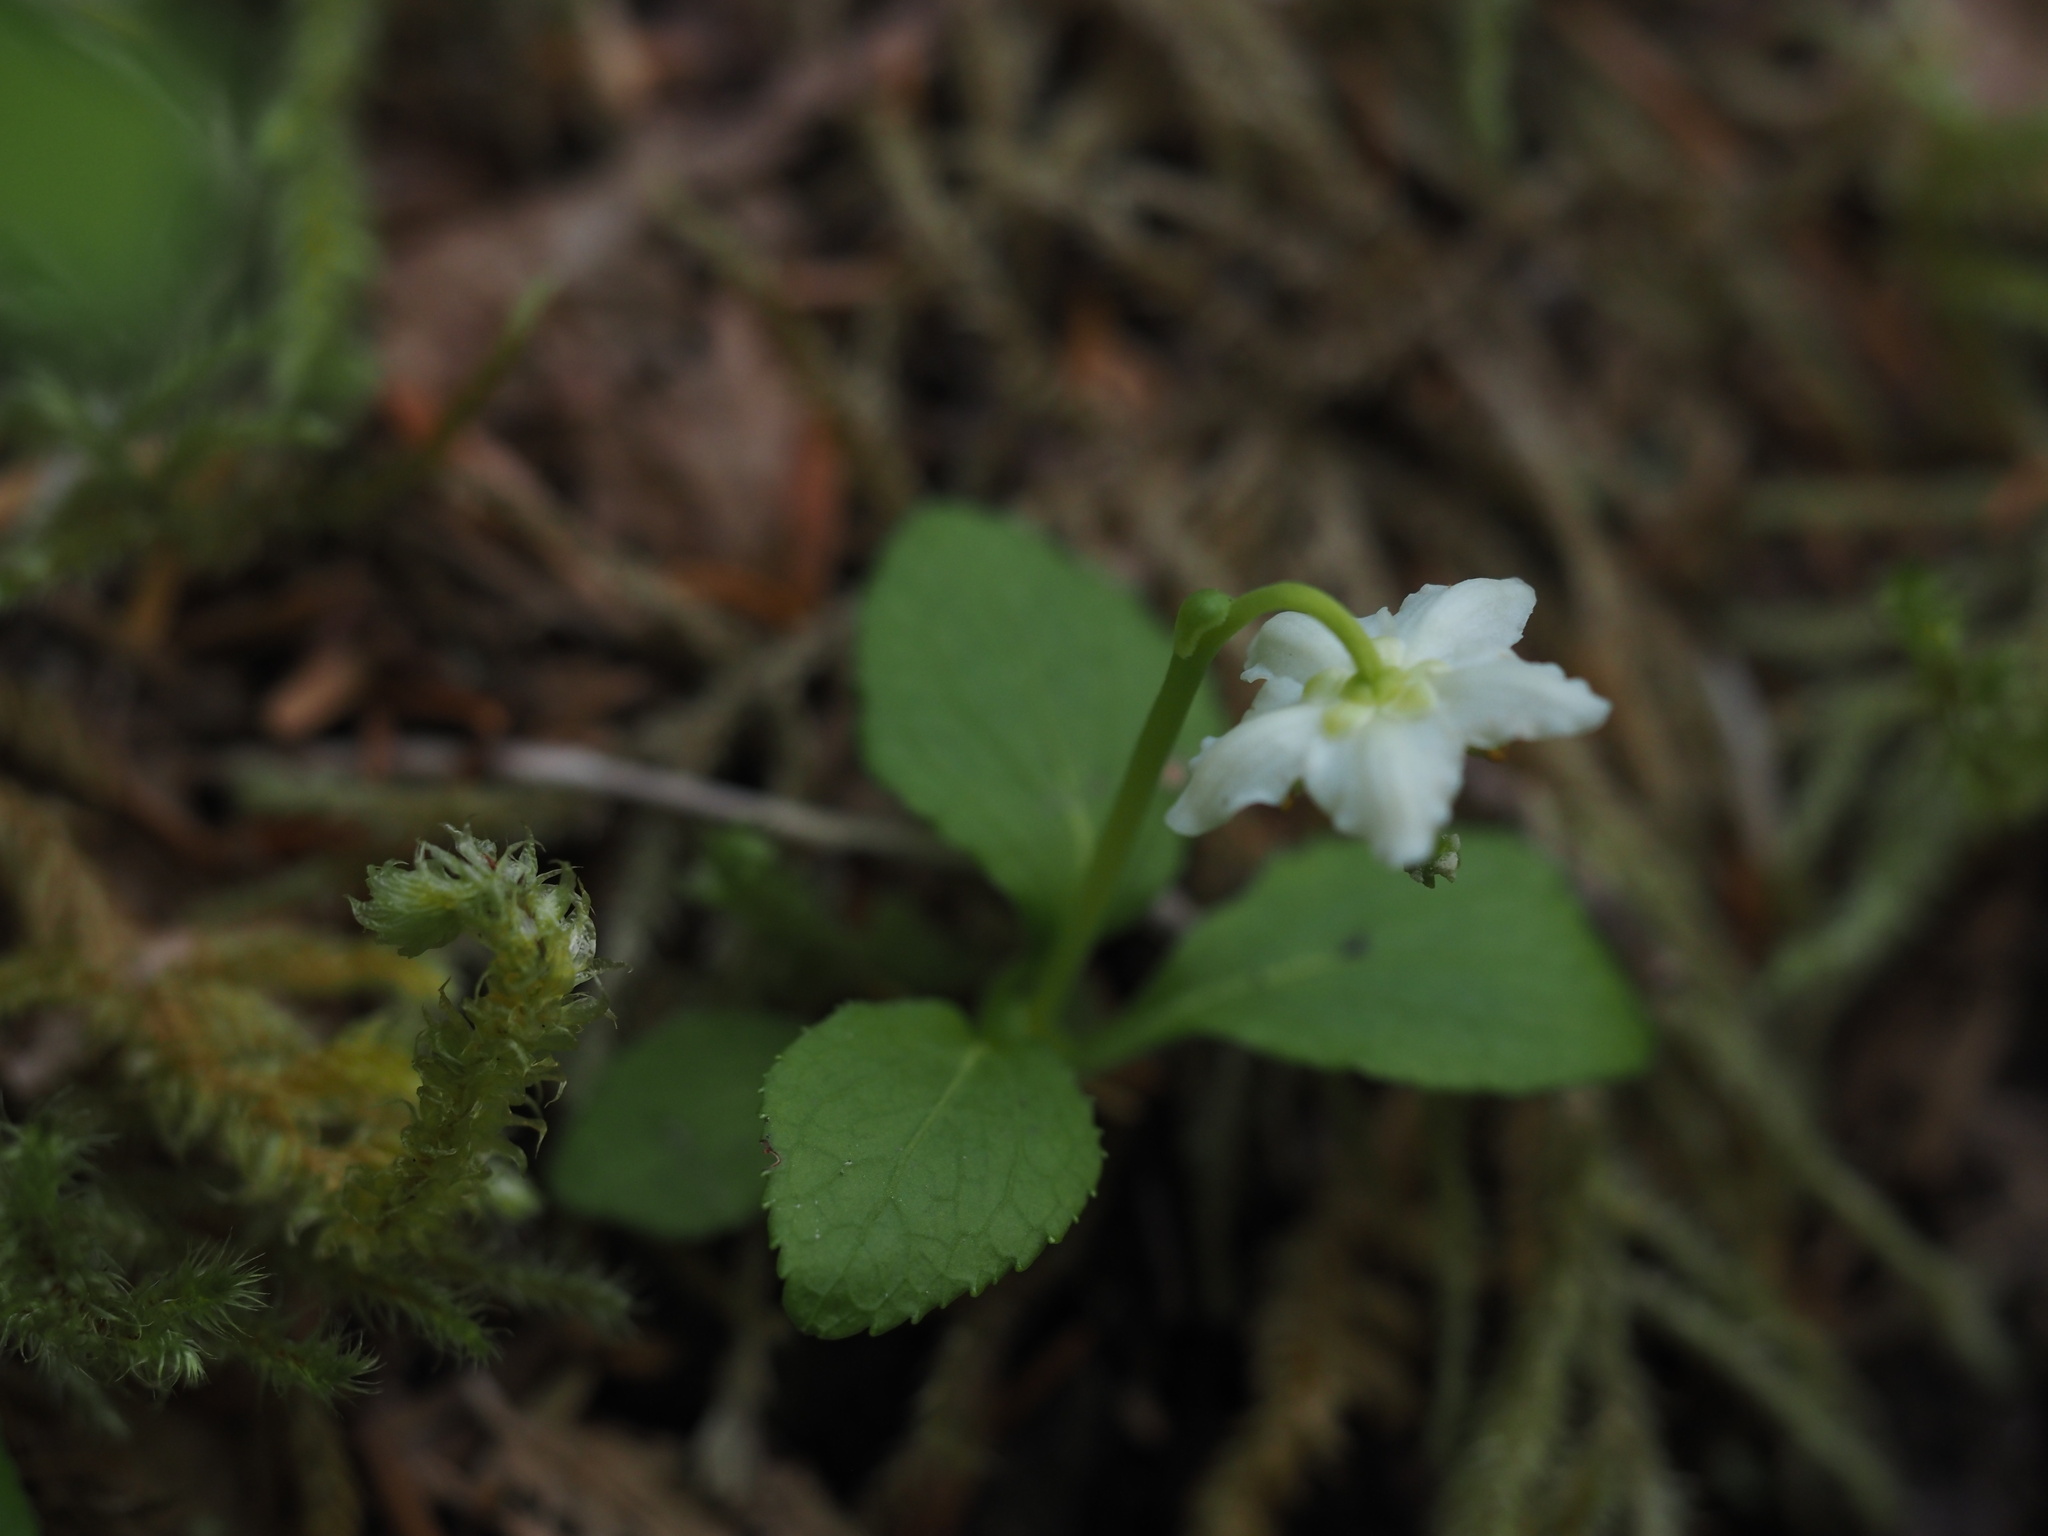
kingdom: Plantae
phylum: Tracheophyta
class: Magnoliopsida
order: Ericales
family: Ericaceae
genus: Moneses
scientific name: Moneses uniflora
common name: One-flowered wintergreen
